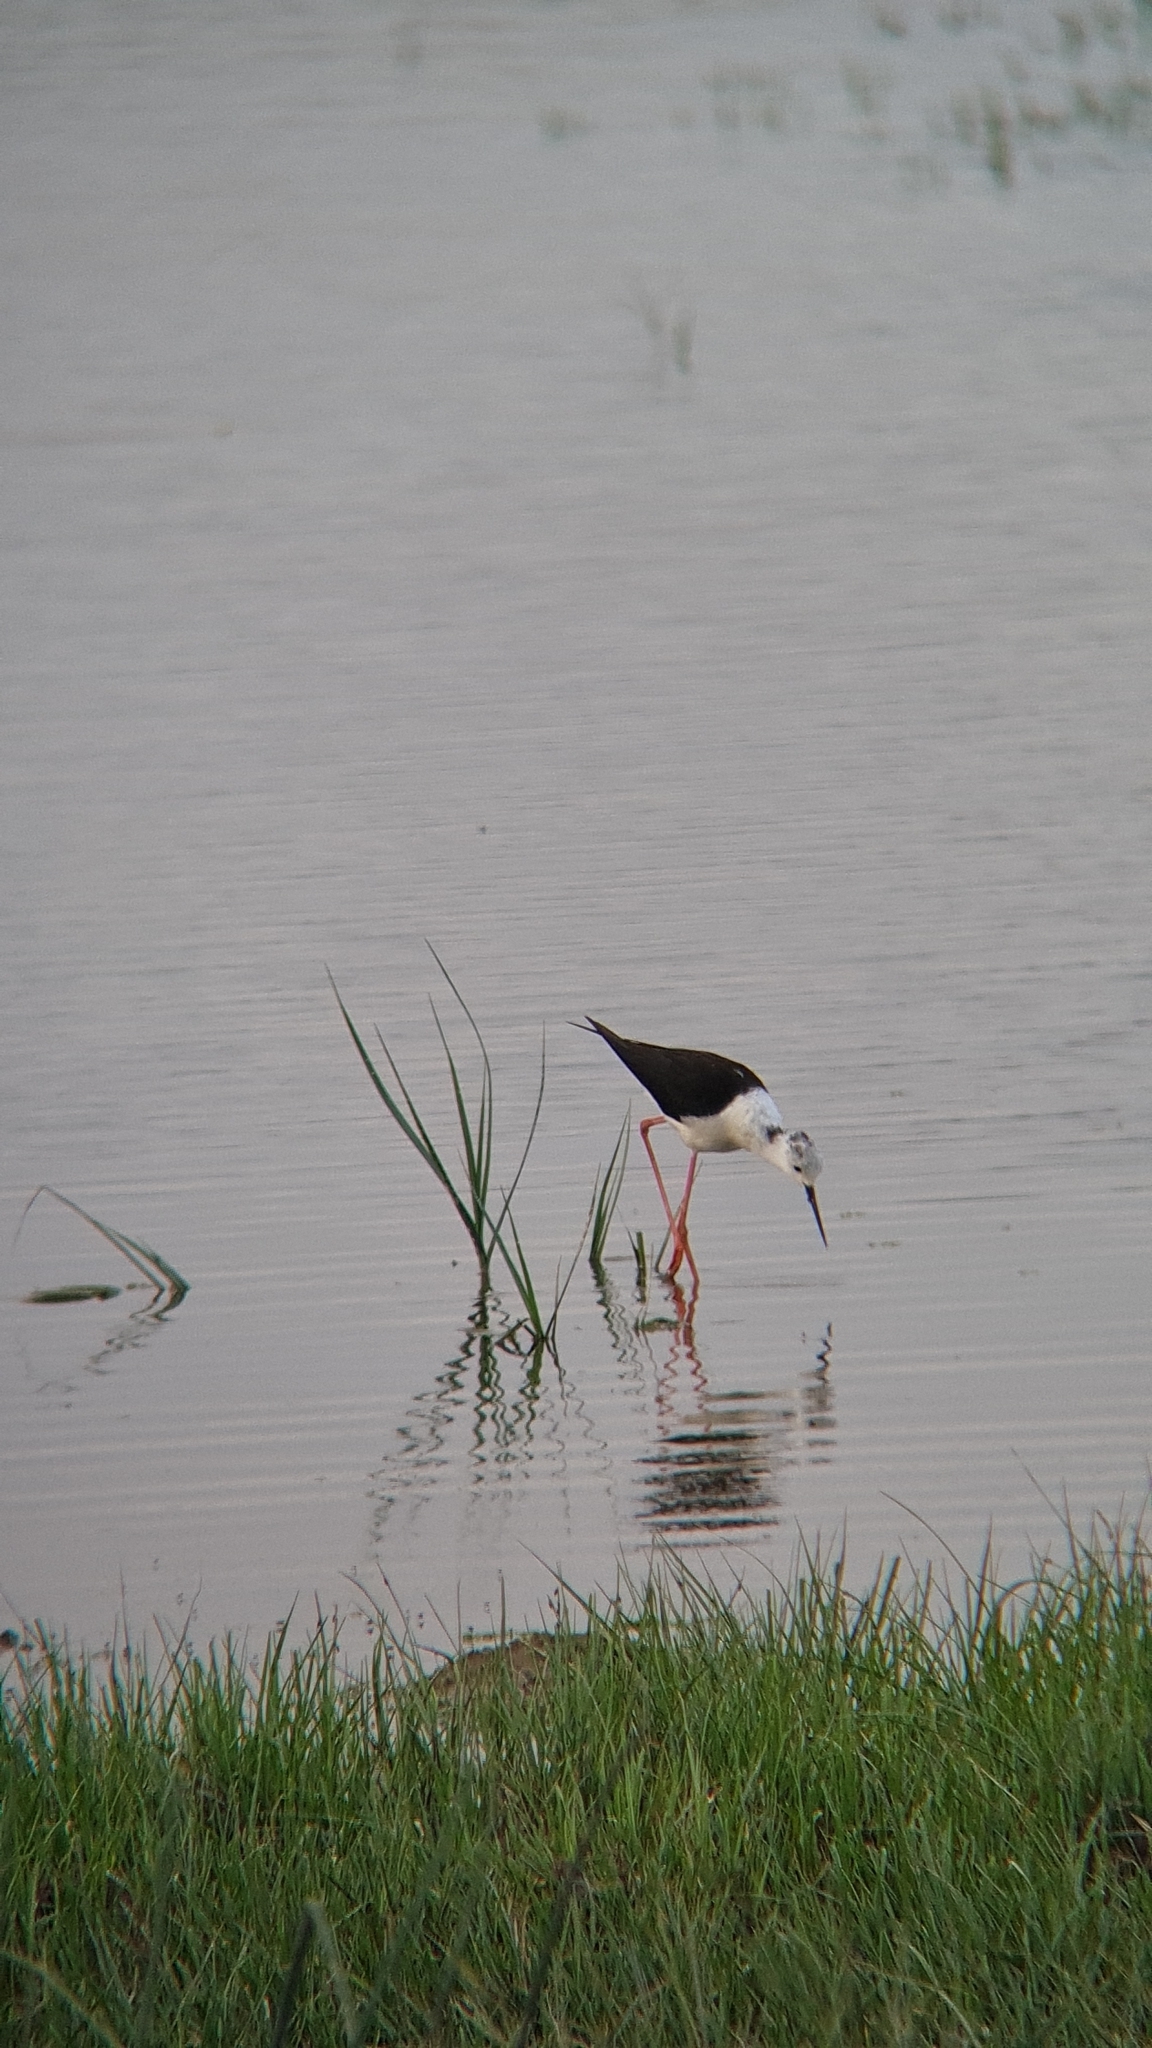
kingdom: Animalia
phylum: Chordata
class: Aves
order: Charadriiformes
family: Recurvirostridae
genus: Himantopus
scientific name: Himantopus himantopus
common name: Black-winged stilt
